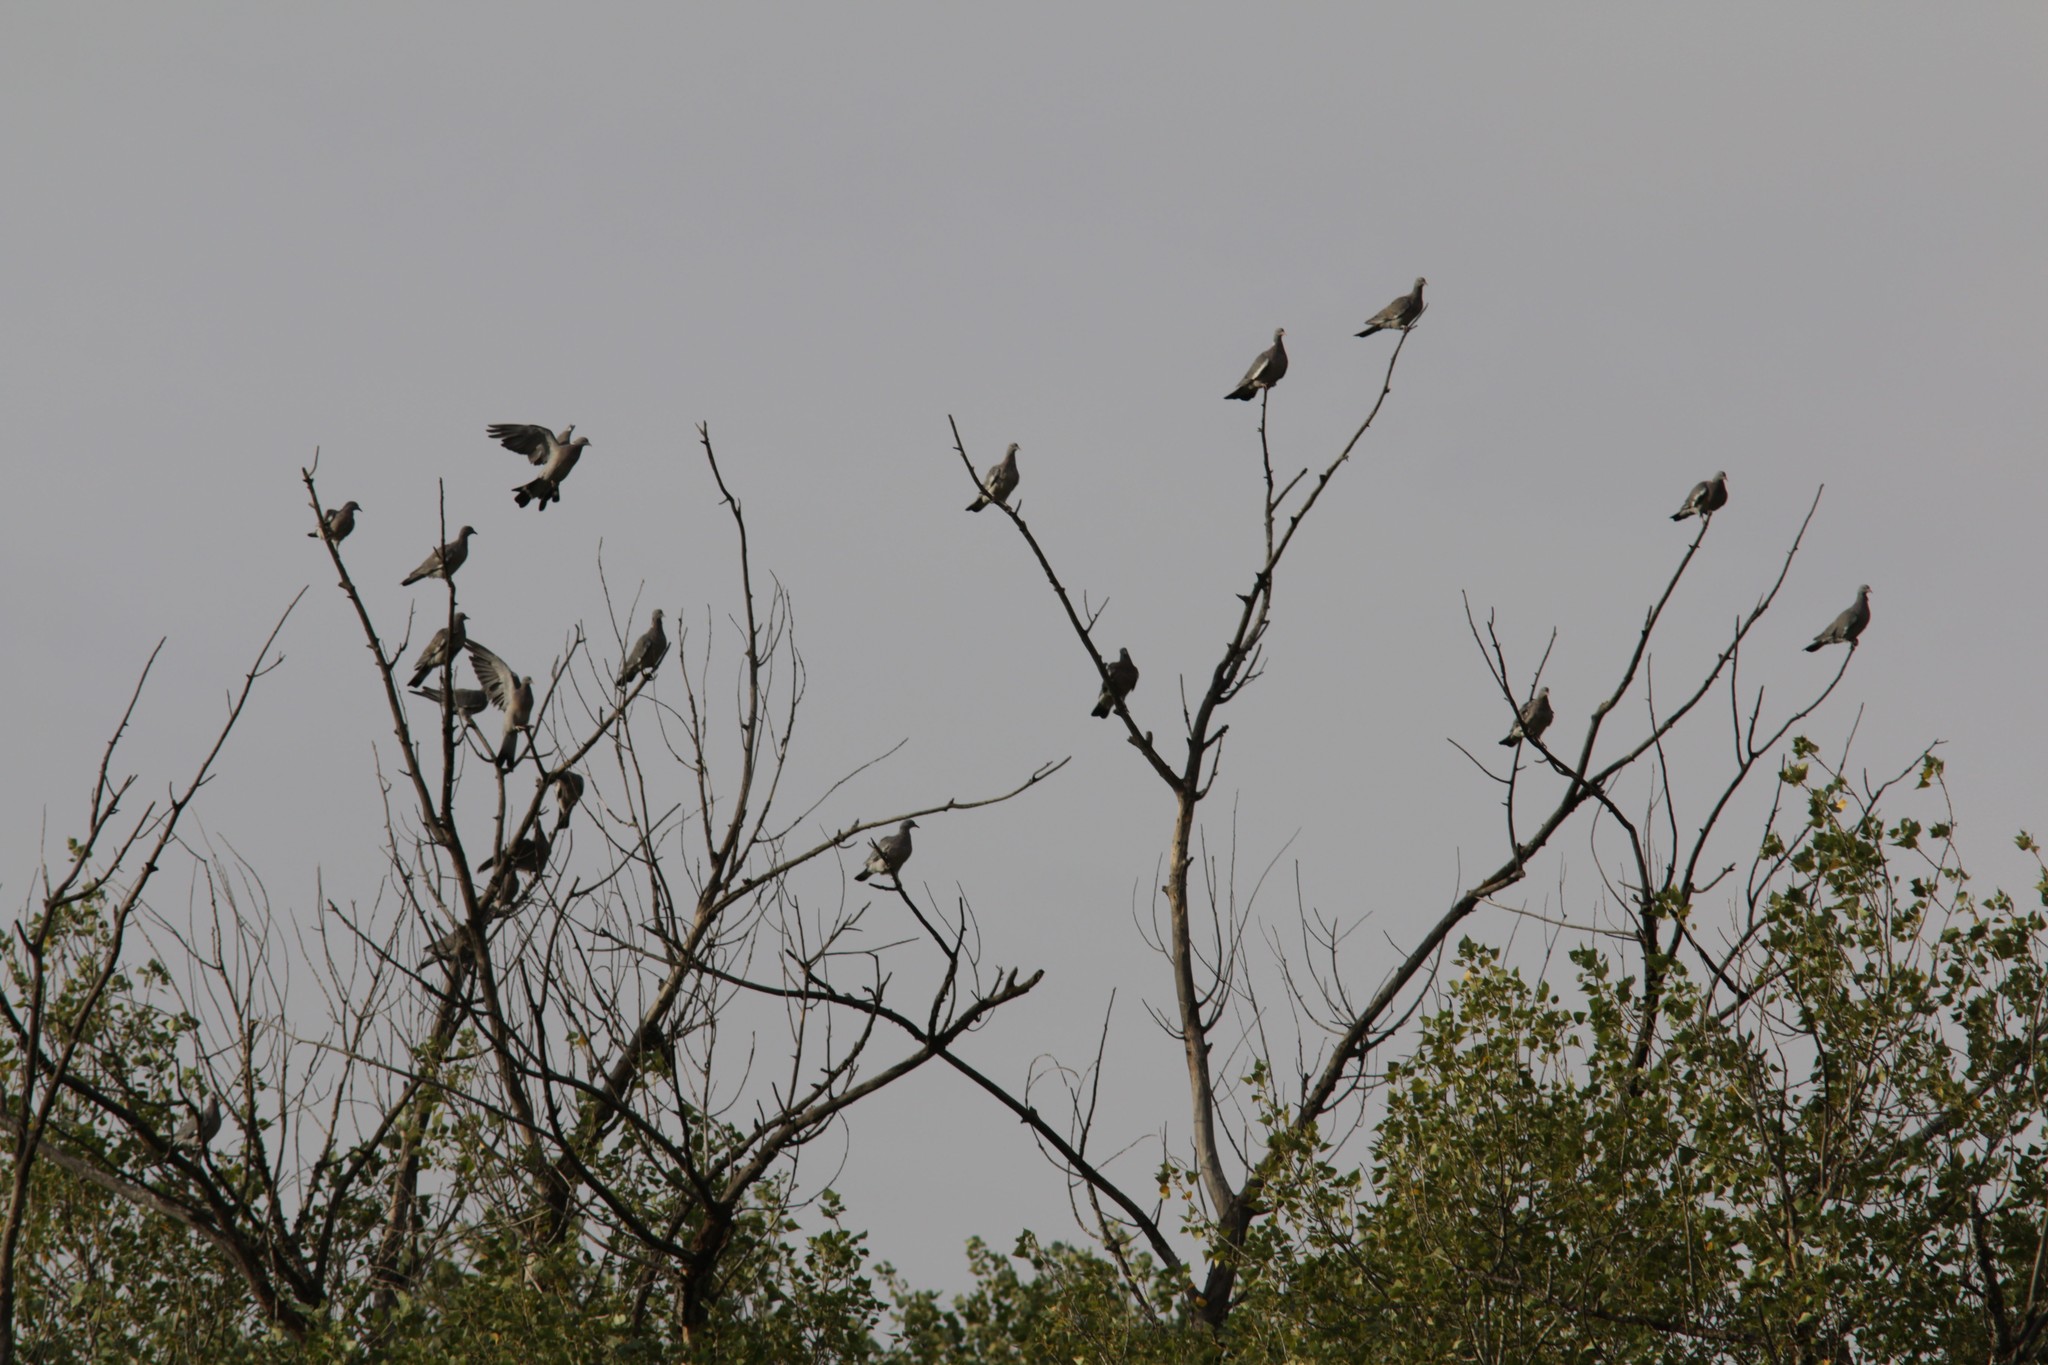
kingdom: Animalia
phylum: Chordata
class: Aves
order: Columbiformes
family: Columbidae
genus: Columba
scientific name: Columba palumbus
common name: Common wood pigeon
